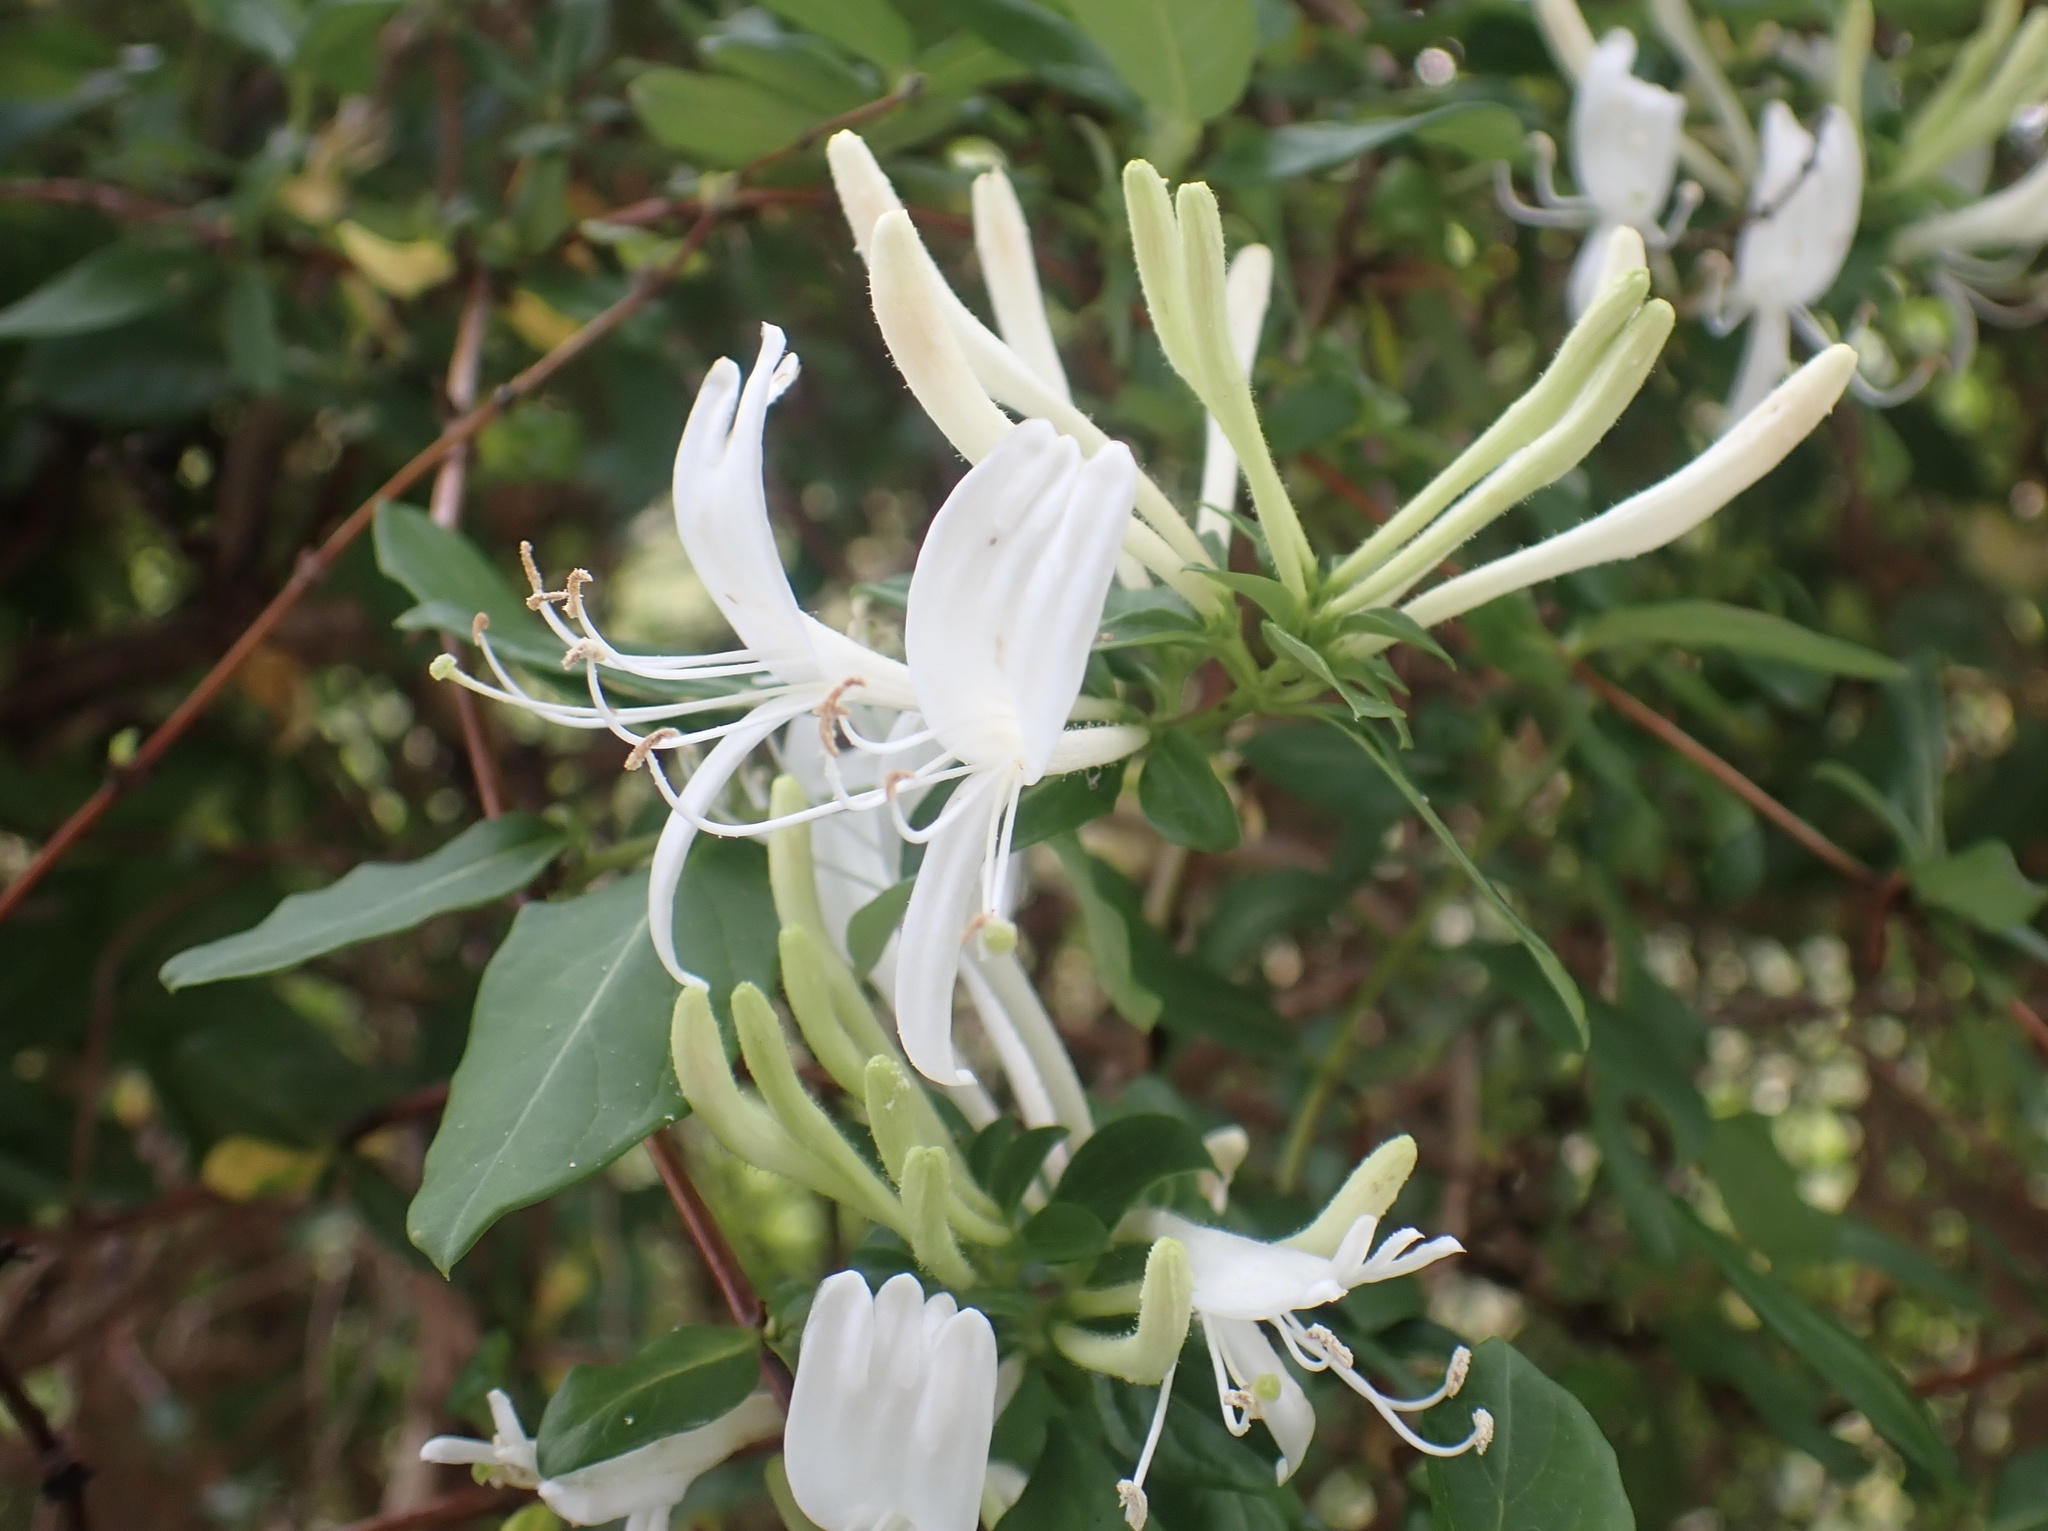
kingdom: Plantae
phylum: Tracheophyta
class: Magnoliopsida
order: Dipsacales
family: Caprifoliaceae
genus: Lonicera
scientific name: Lonicera japonica
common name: Japanese honeysuckle
